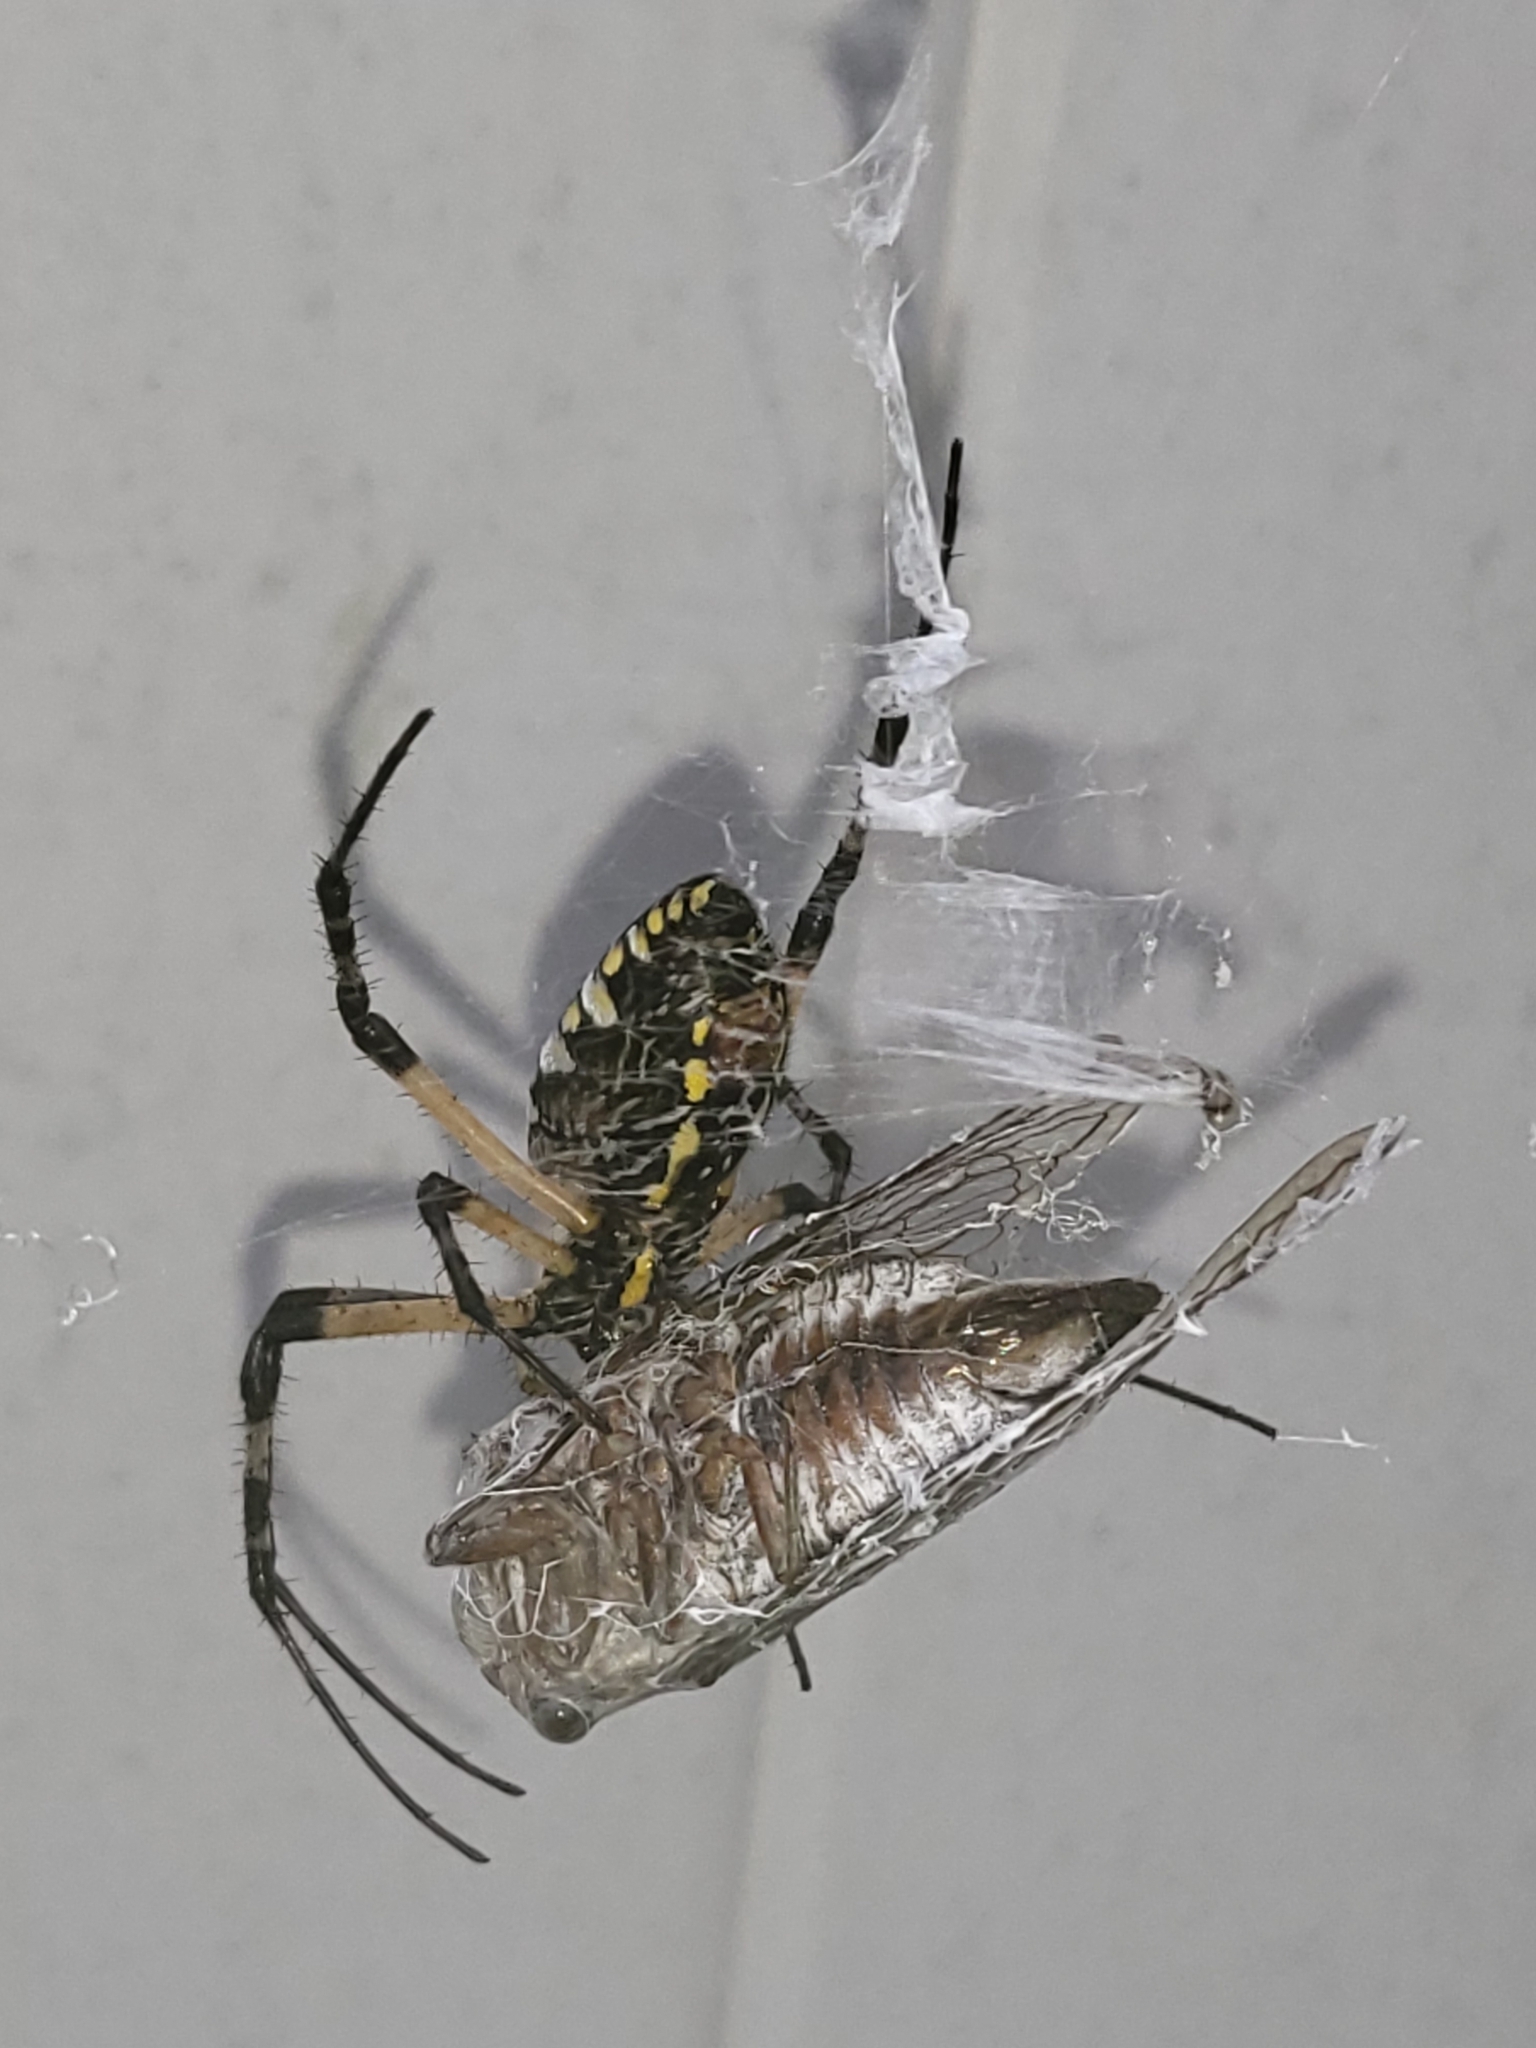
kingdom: Animalia
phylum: Arthropoda
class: Arachnida
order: Araneae
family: Araneidae
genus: Argiope
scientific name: Argiope aurantia
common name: Orb weavers
